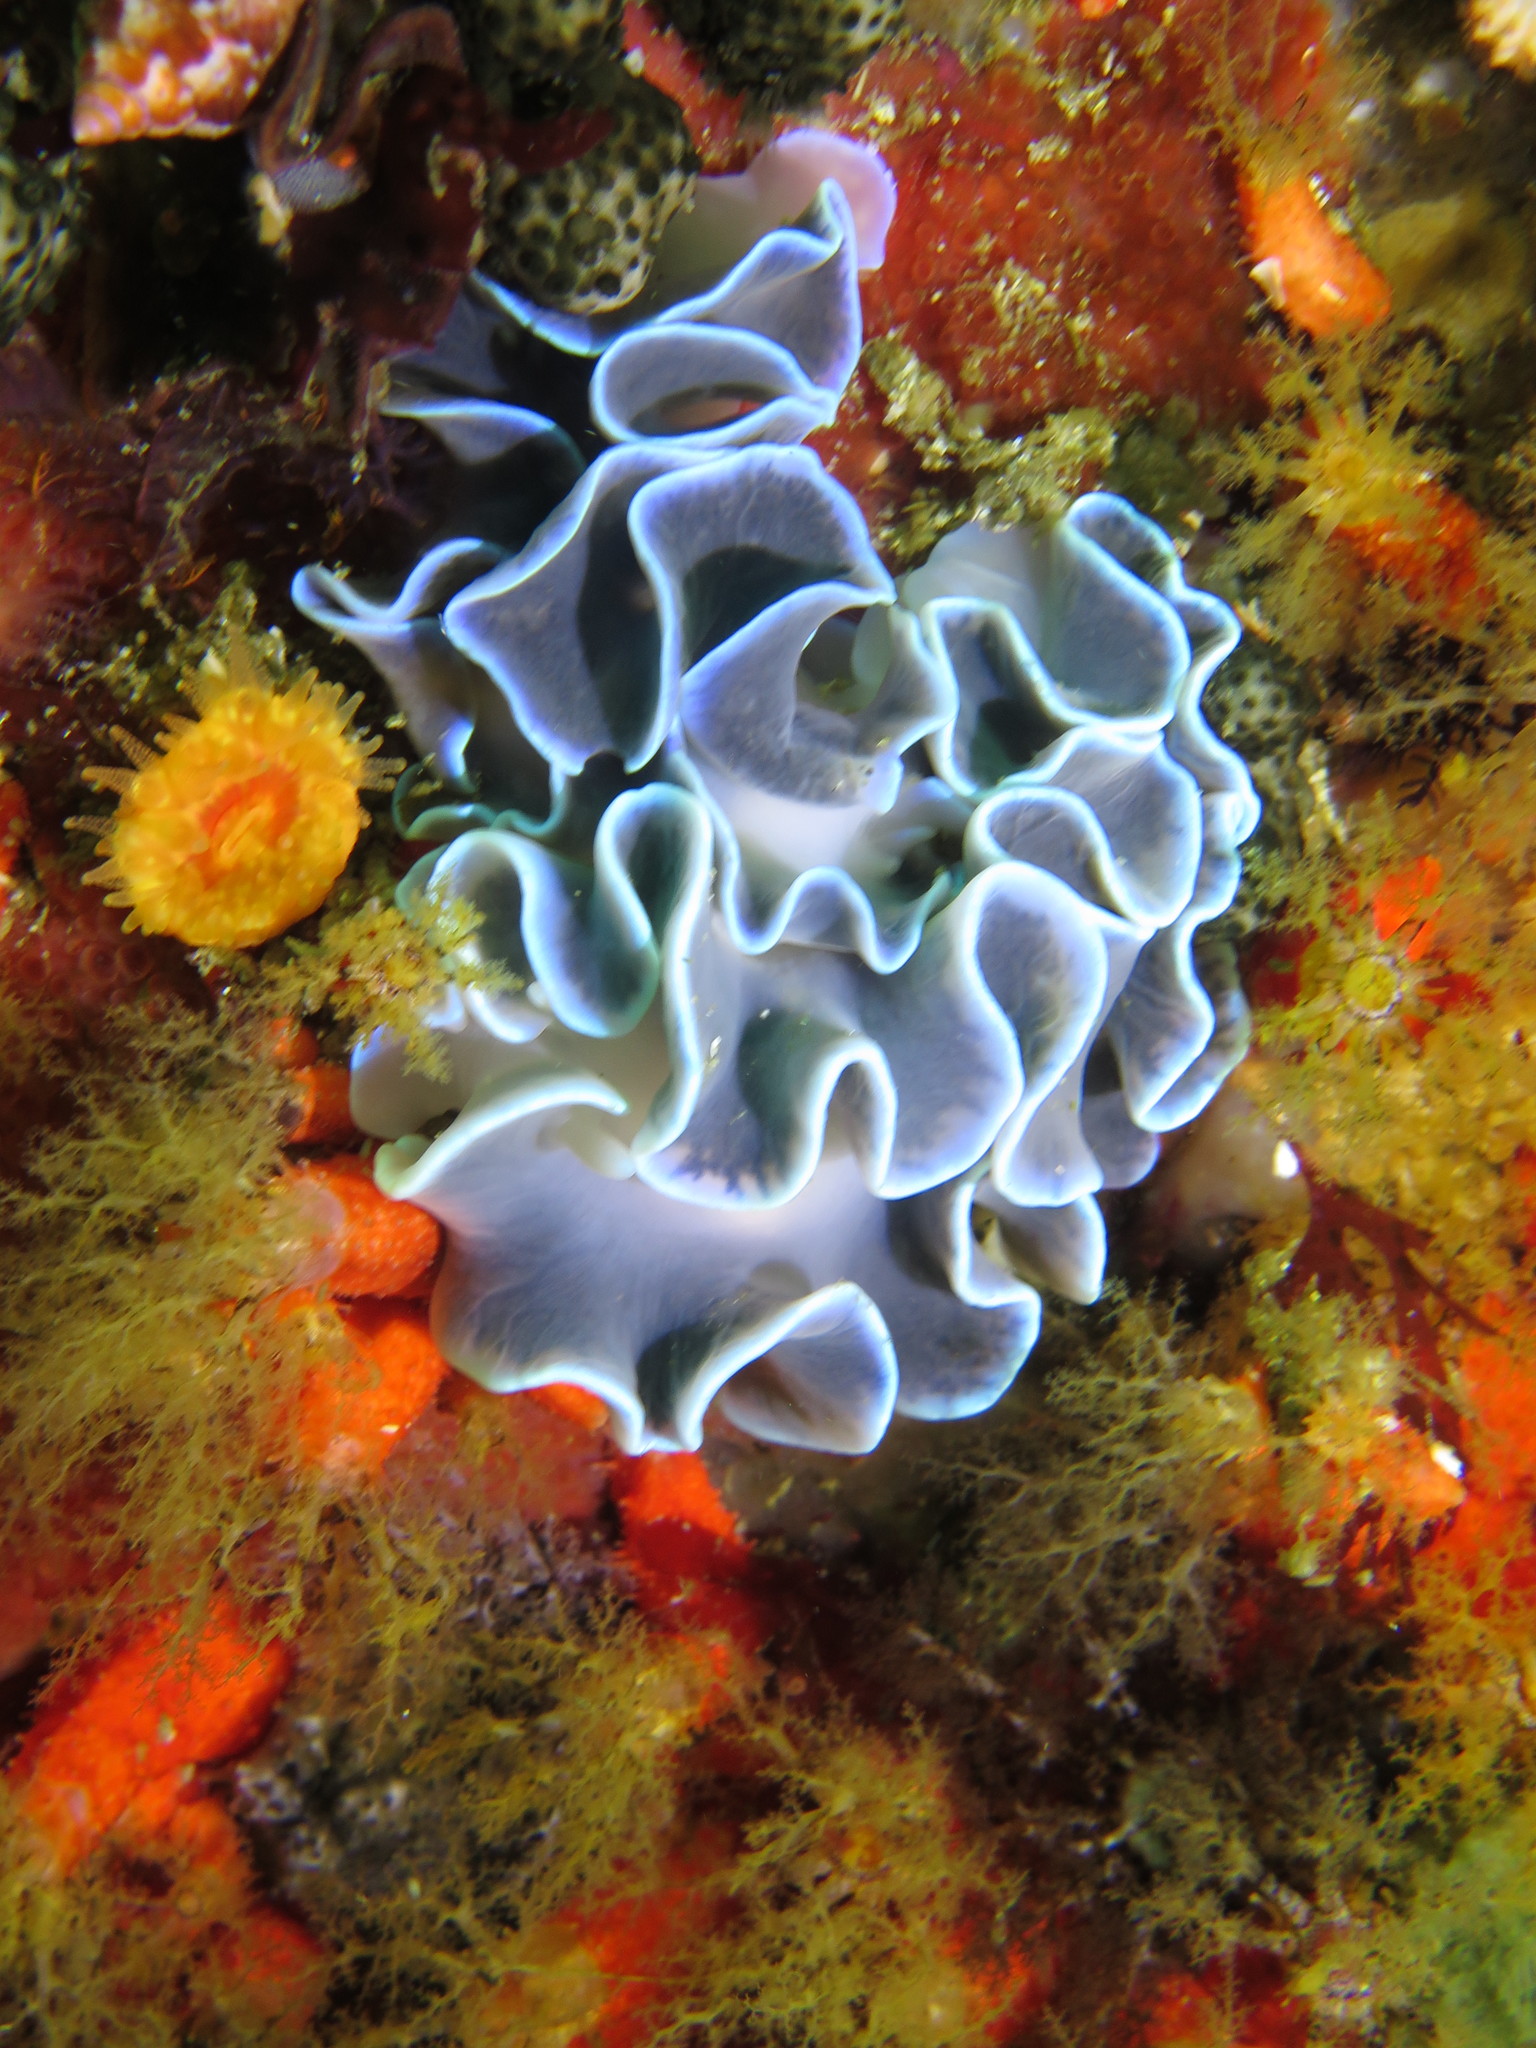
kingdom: Animalia
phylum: Mollusca
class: Gastropoda
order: Nudibranchia
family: Lemindidae
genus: Leminda
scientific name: Leminda millecra
